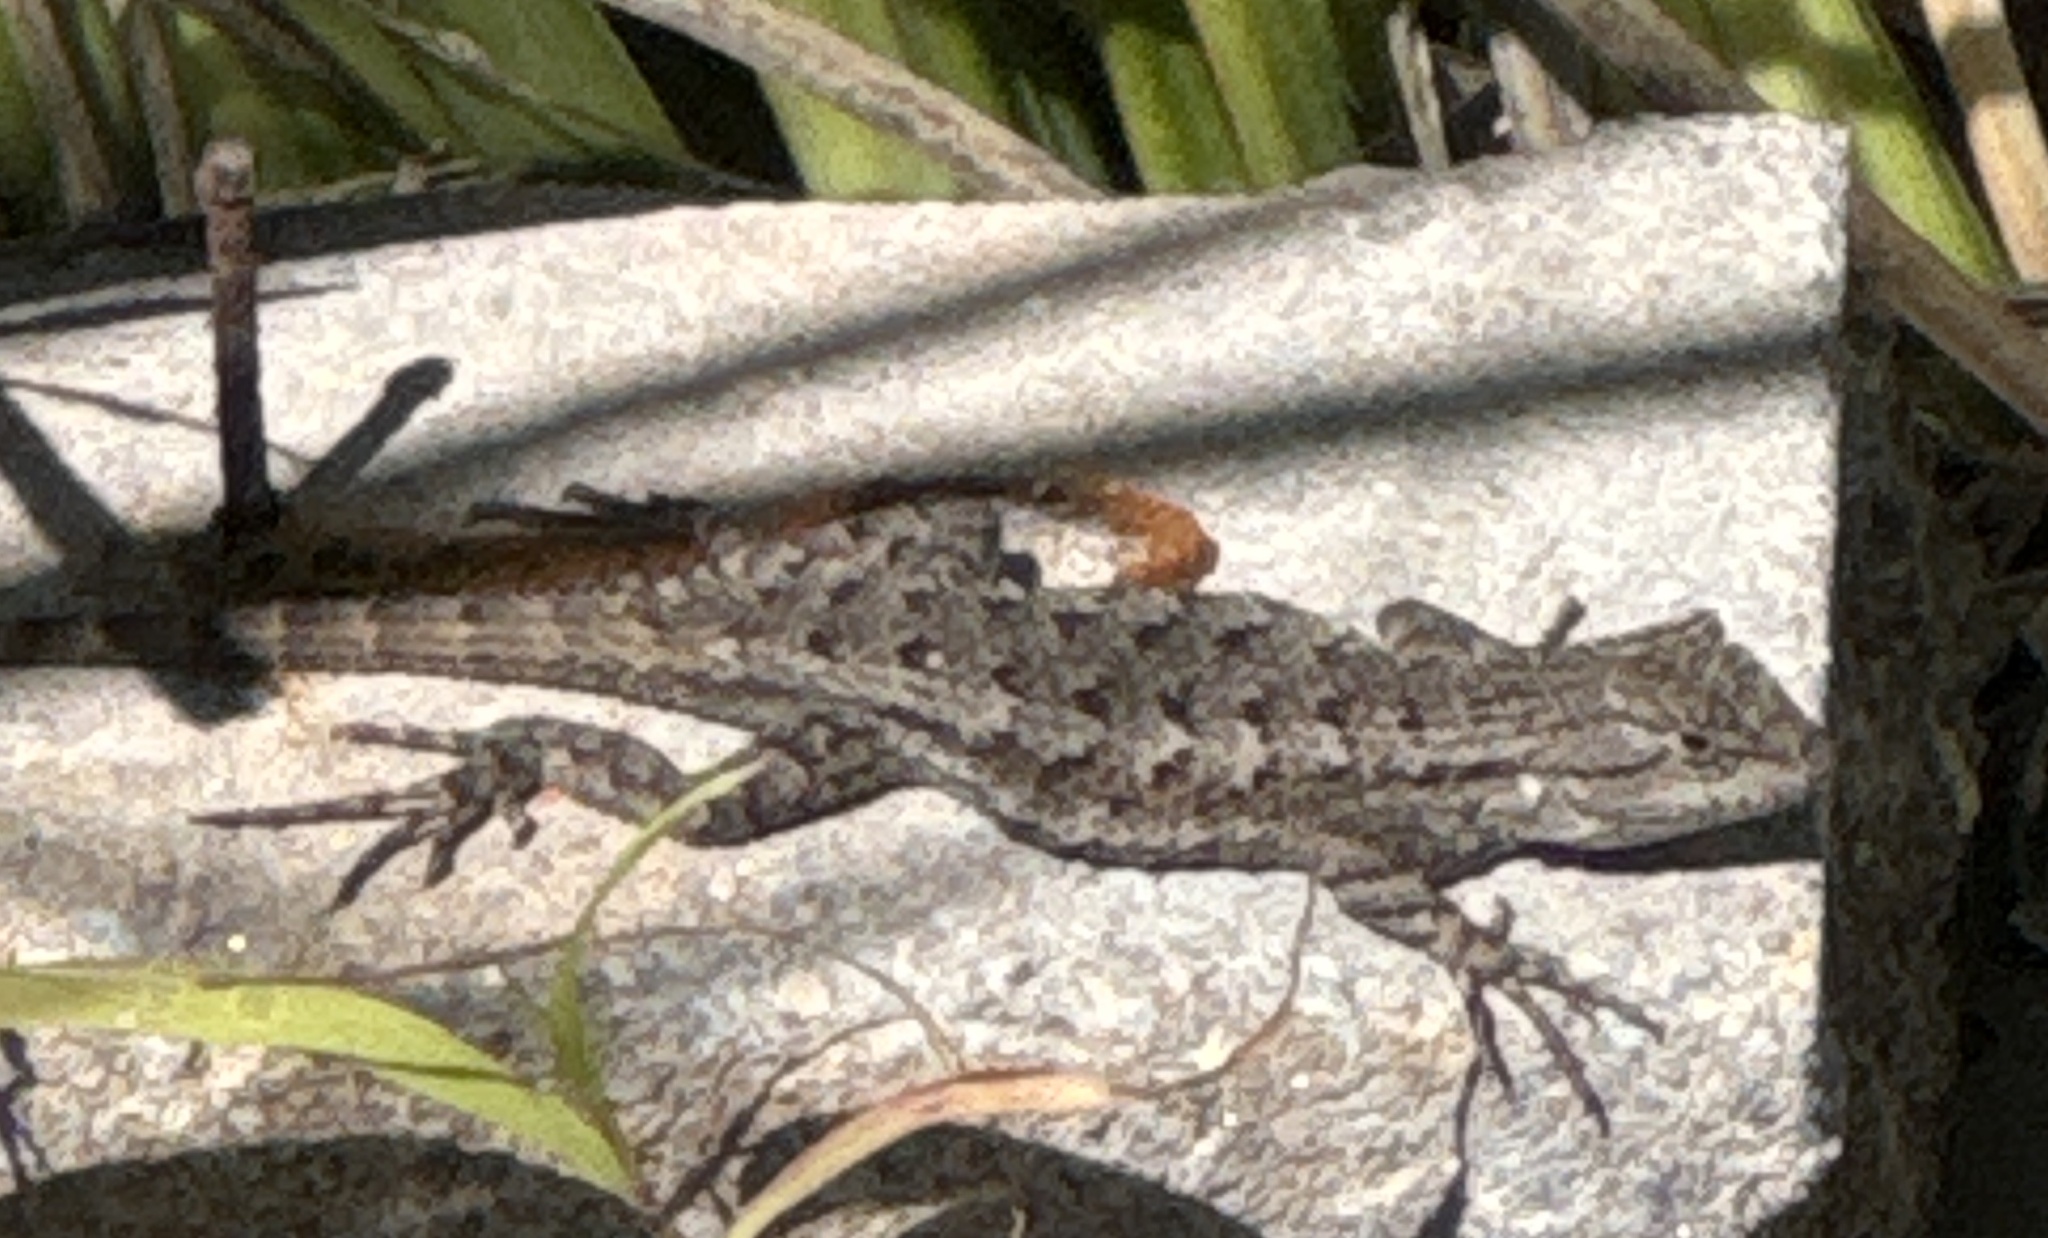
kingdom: Animalia
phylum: Chordata
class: Squamata
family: Phrynosomatidae
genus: Sceloporus
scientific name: Sceloporus occidentalis
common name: Western fence lizard
